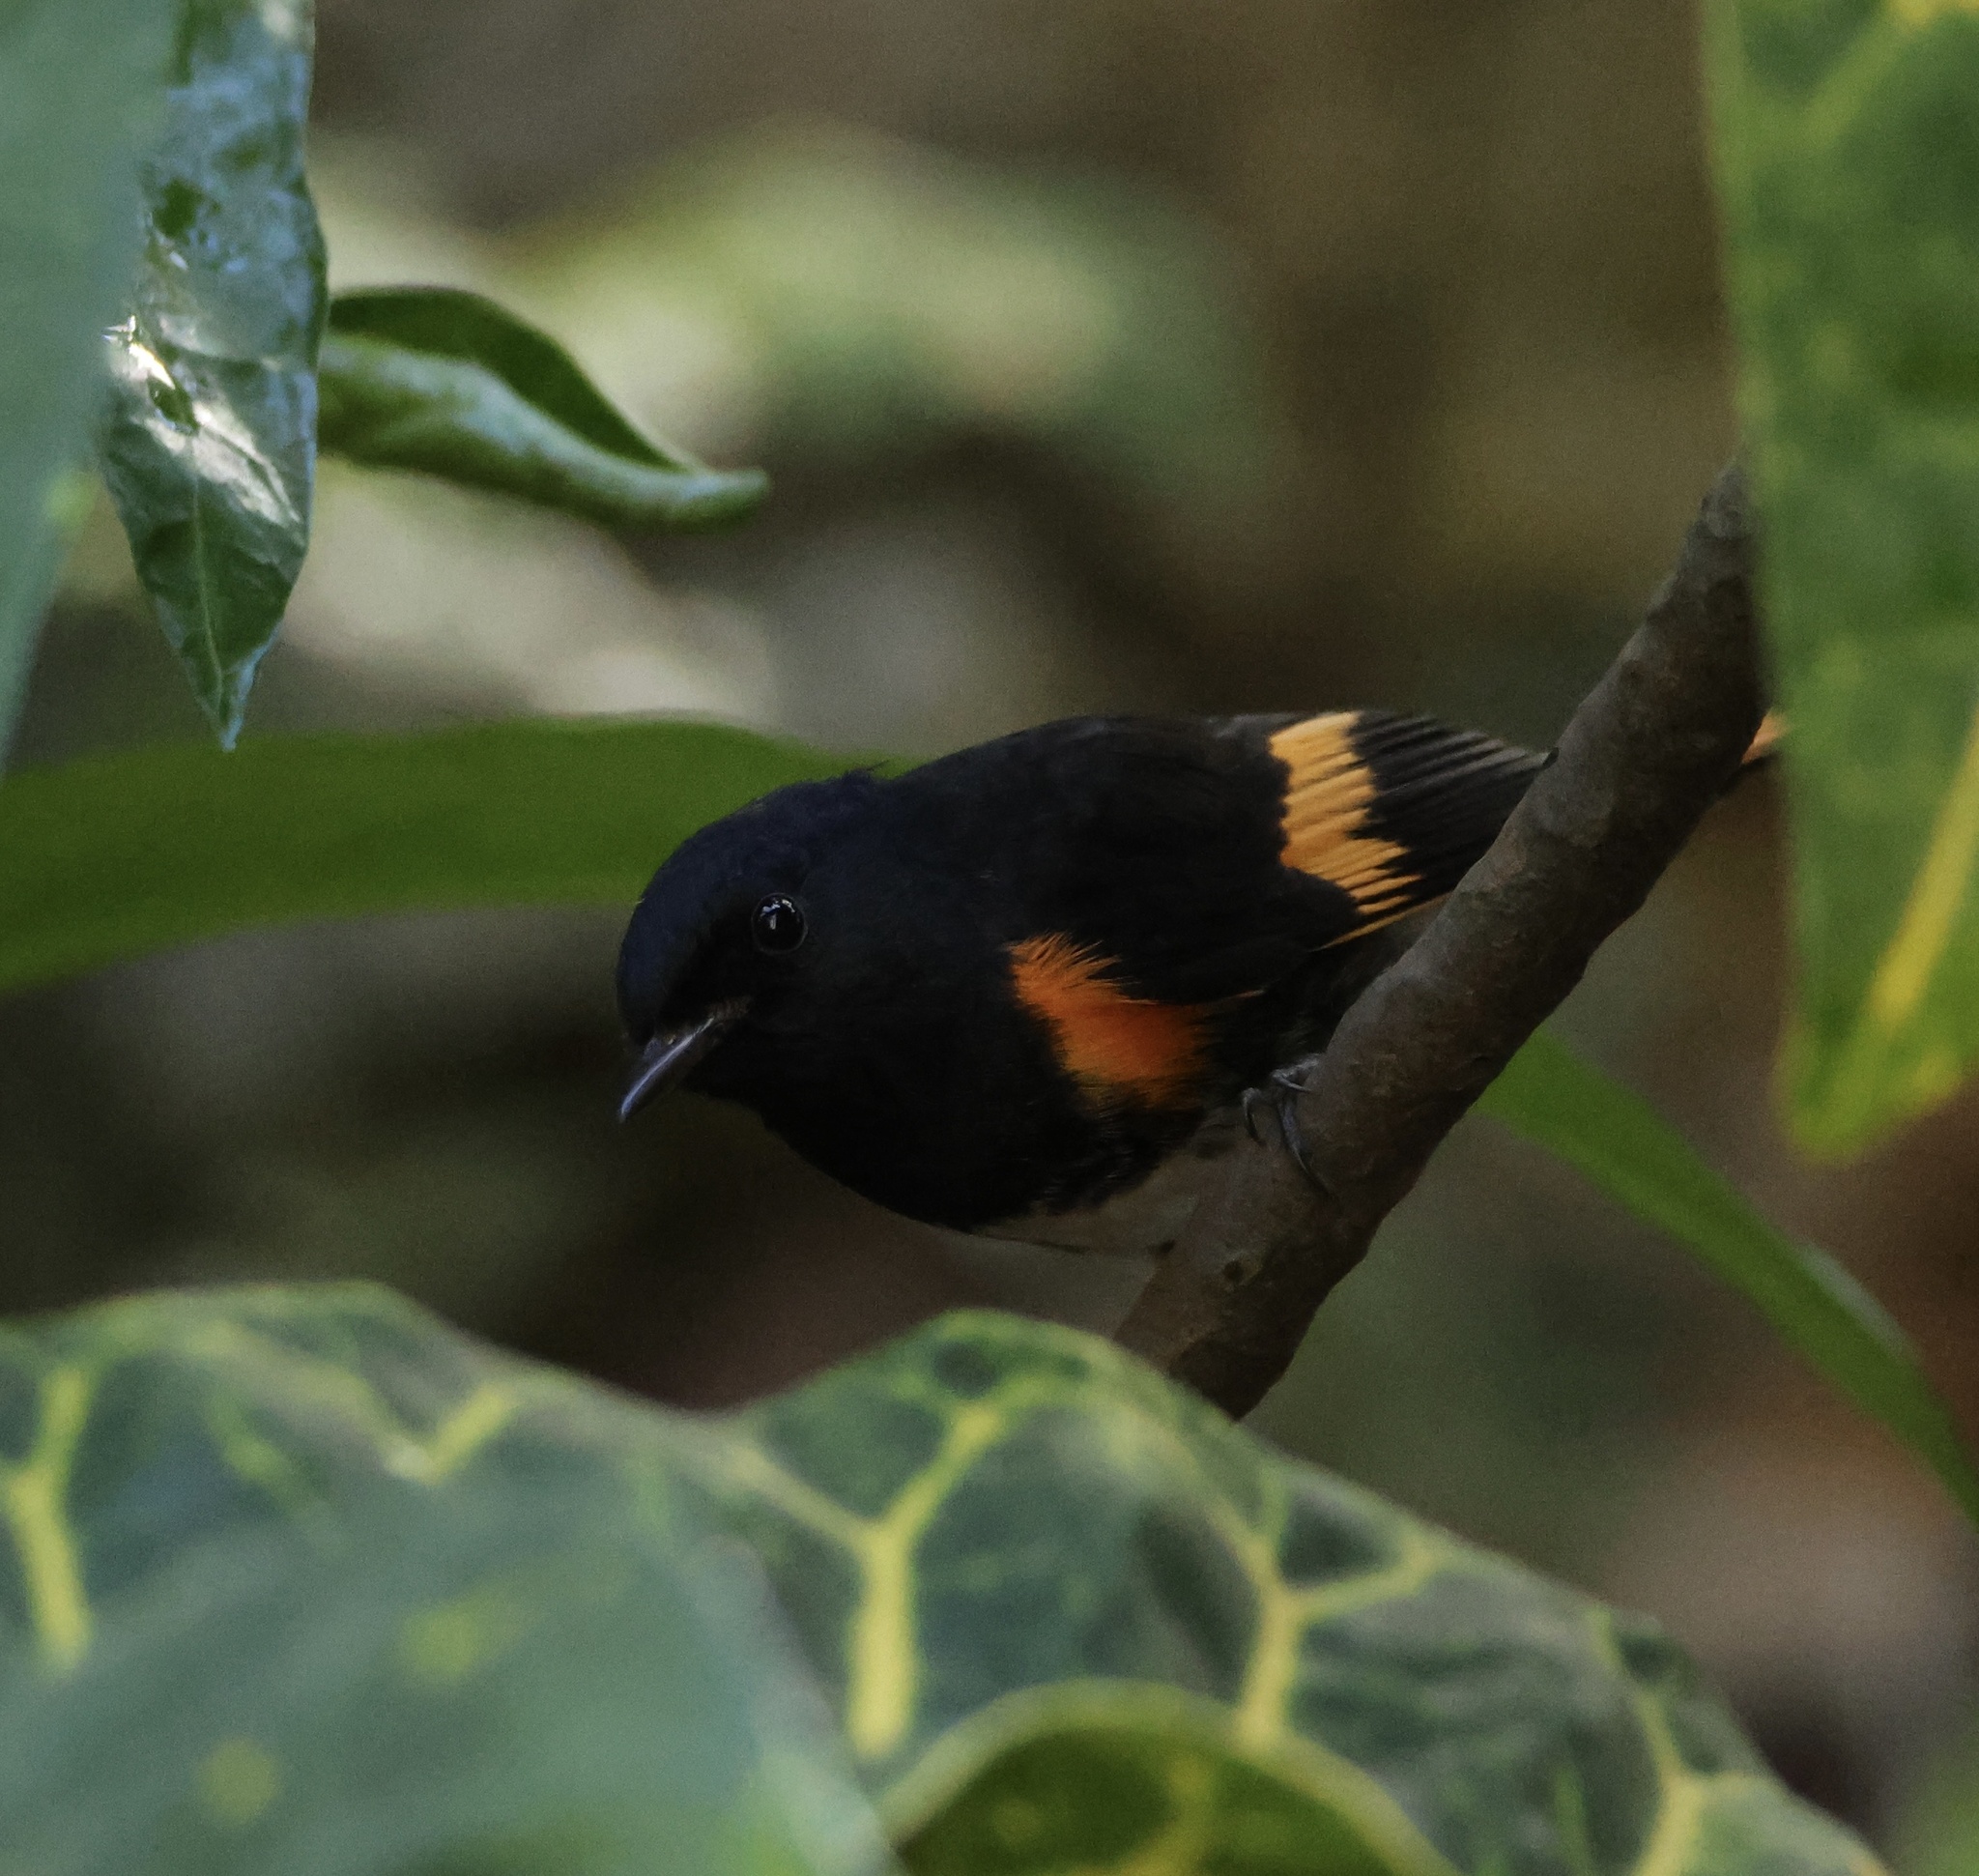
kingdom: Animalia
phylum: Chordata
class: Aves
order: Passeriformes
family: Parulidae
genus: Setophaga
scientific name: Setophaga ruticilla
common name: American redstart
